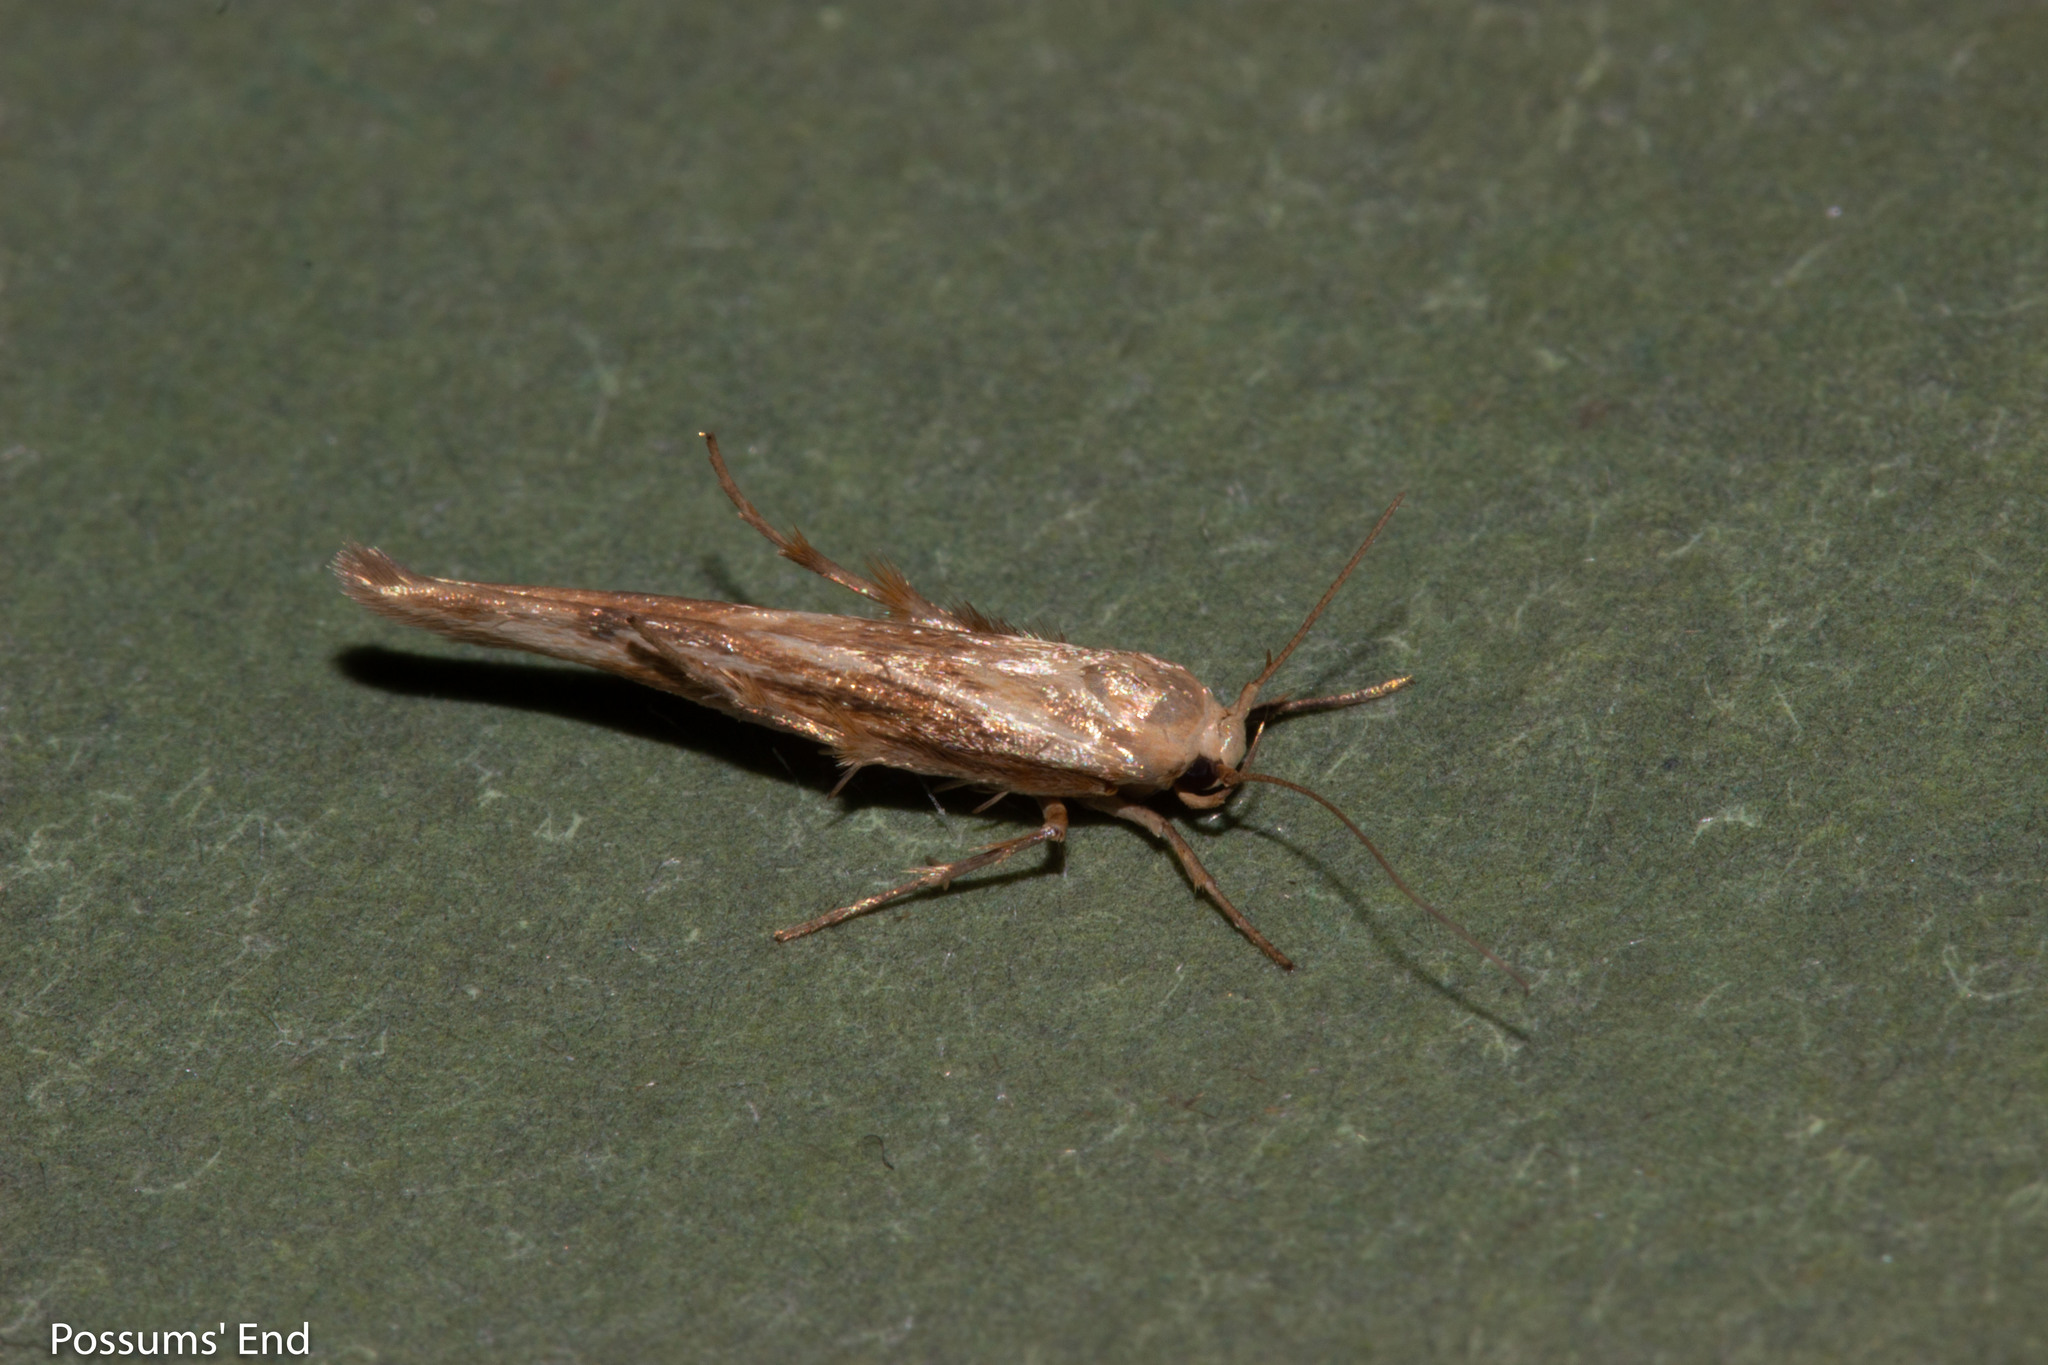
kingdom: Animalia
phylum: Arthropoda
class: Insecta
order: Lepidoptera
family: Stathmopodidae
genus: Stathmopoda
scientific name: Stathmopoda aposema
